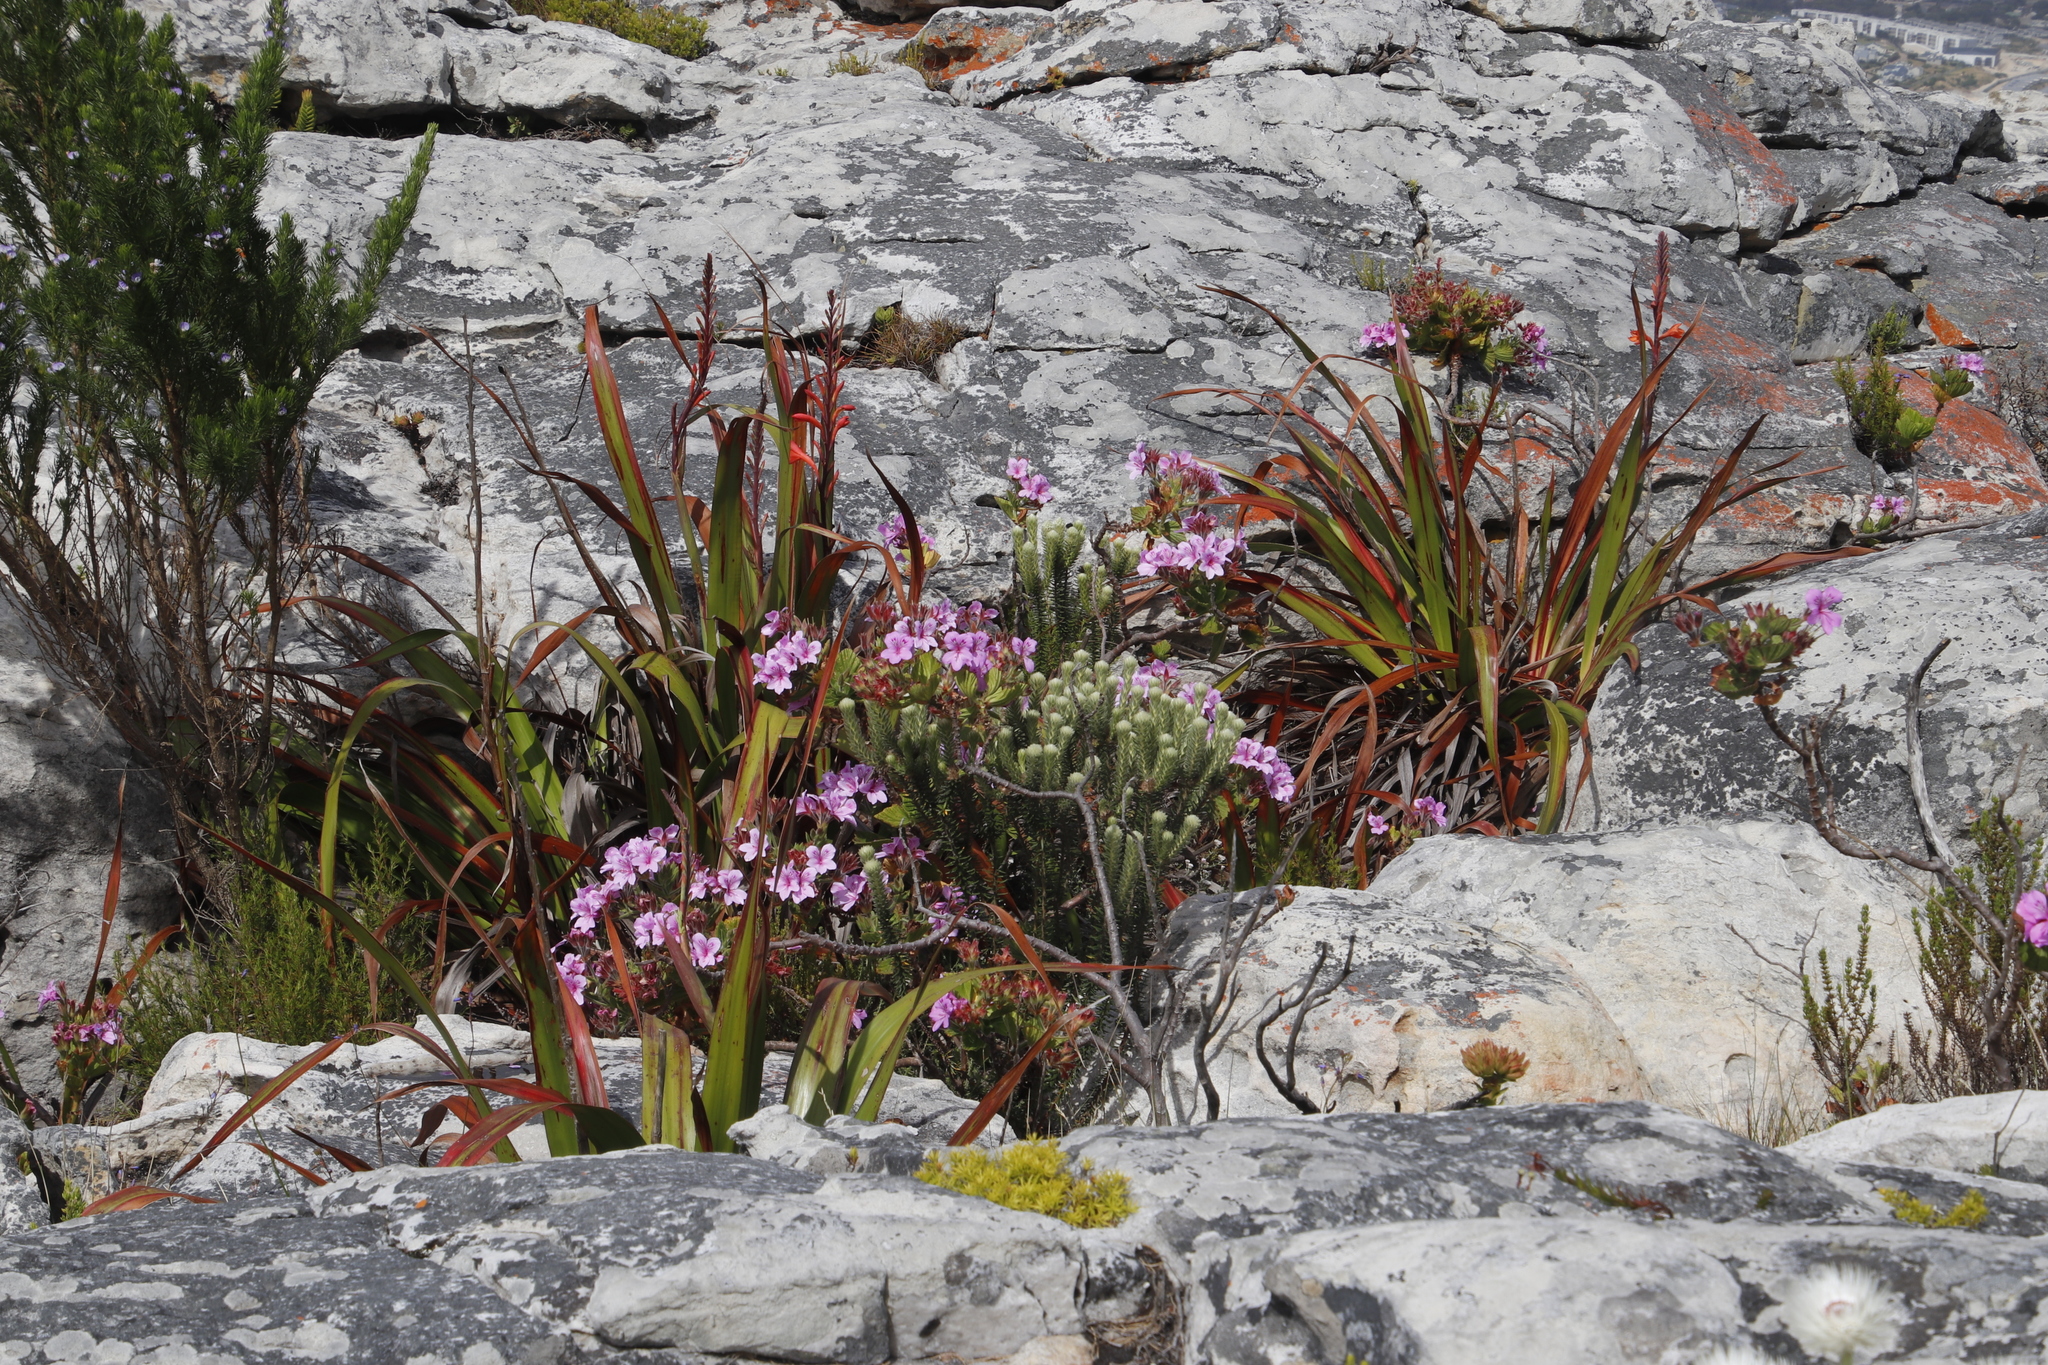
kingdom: Plantae
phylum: Tracheophyta
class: Liliopsida
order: Asparagales
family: Iridaceae
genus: Watsonia
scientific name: Watsonia tabularis
